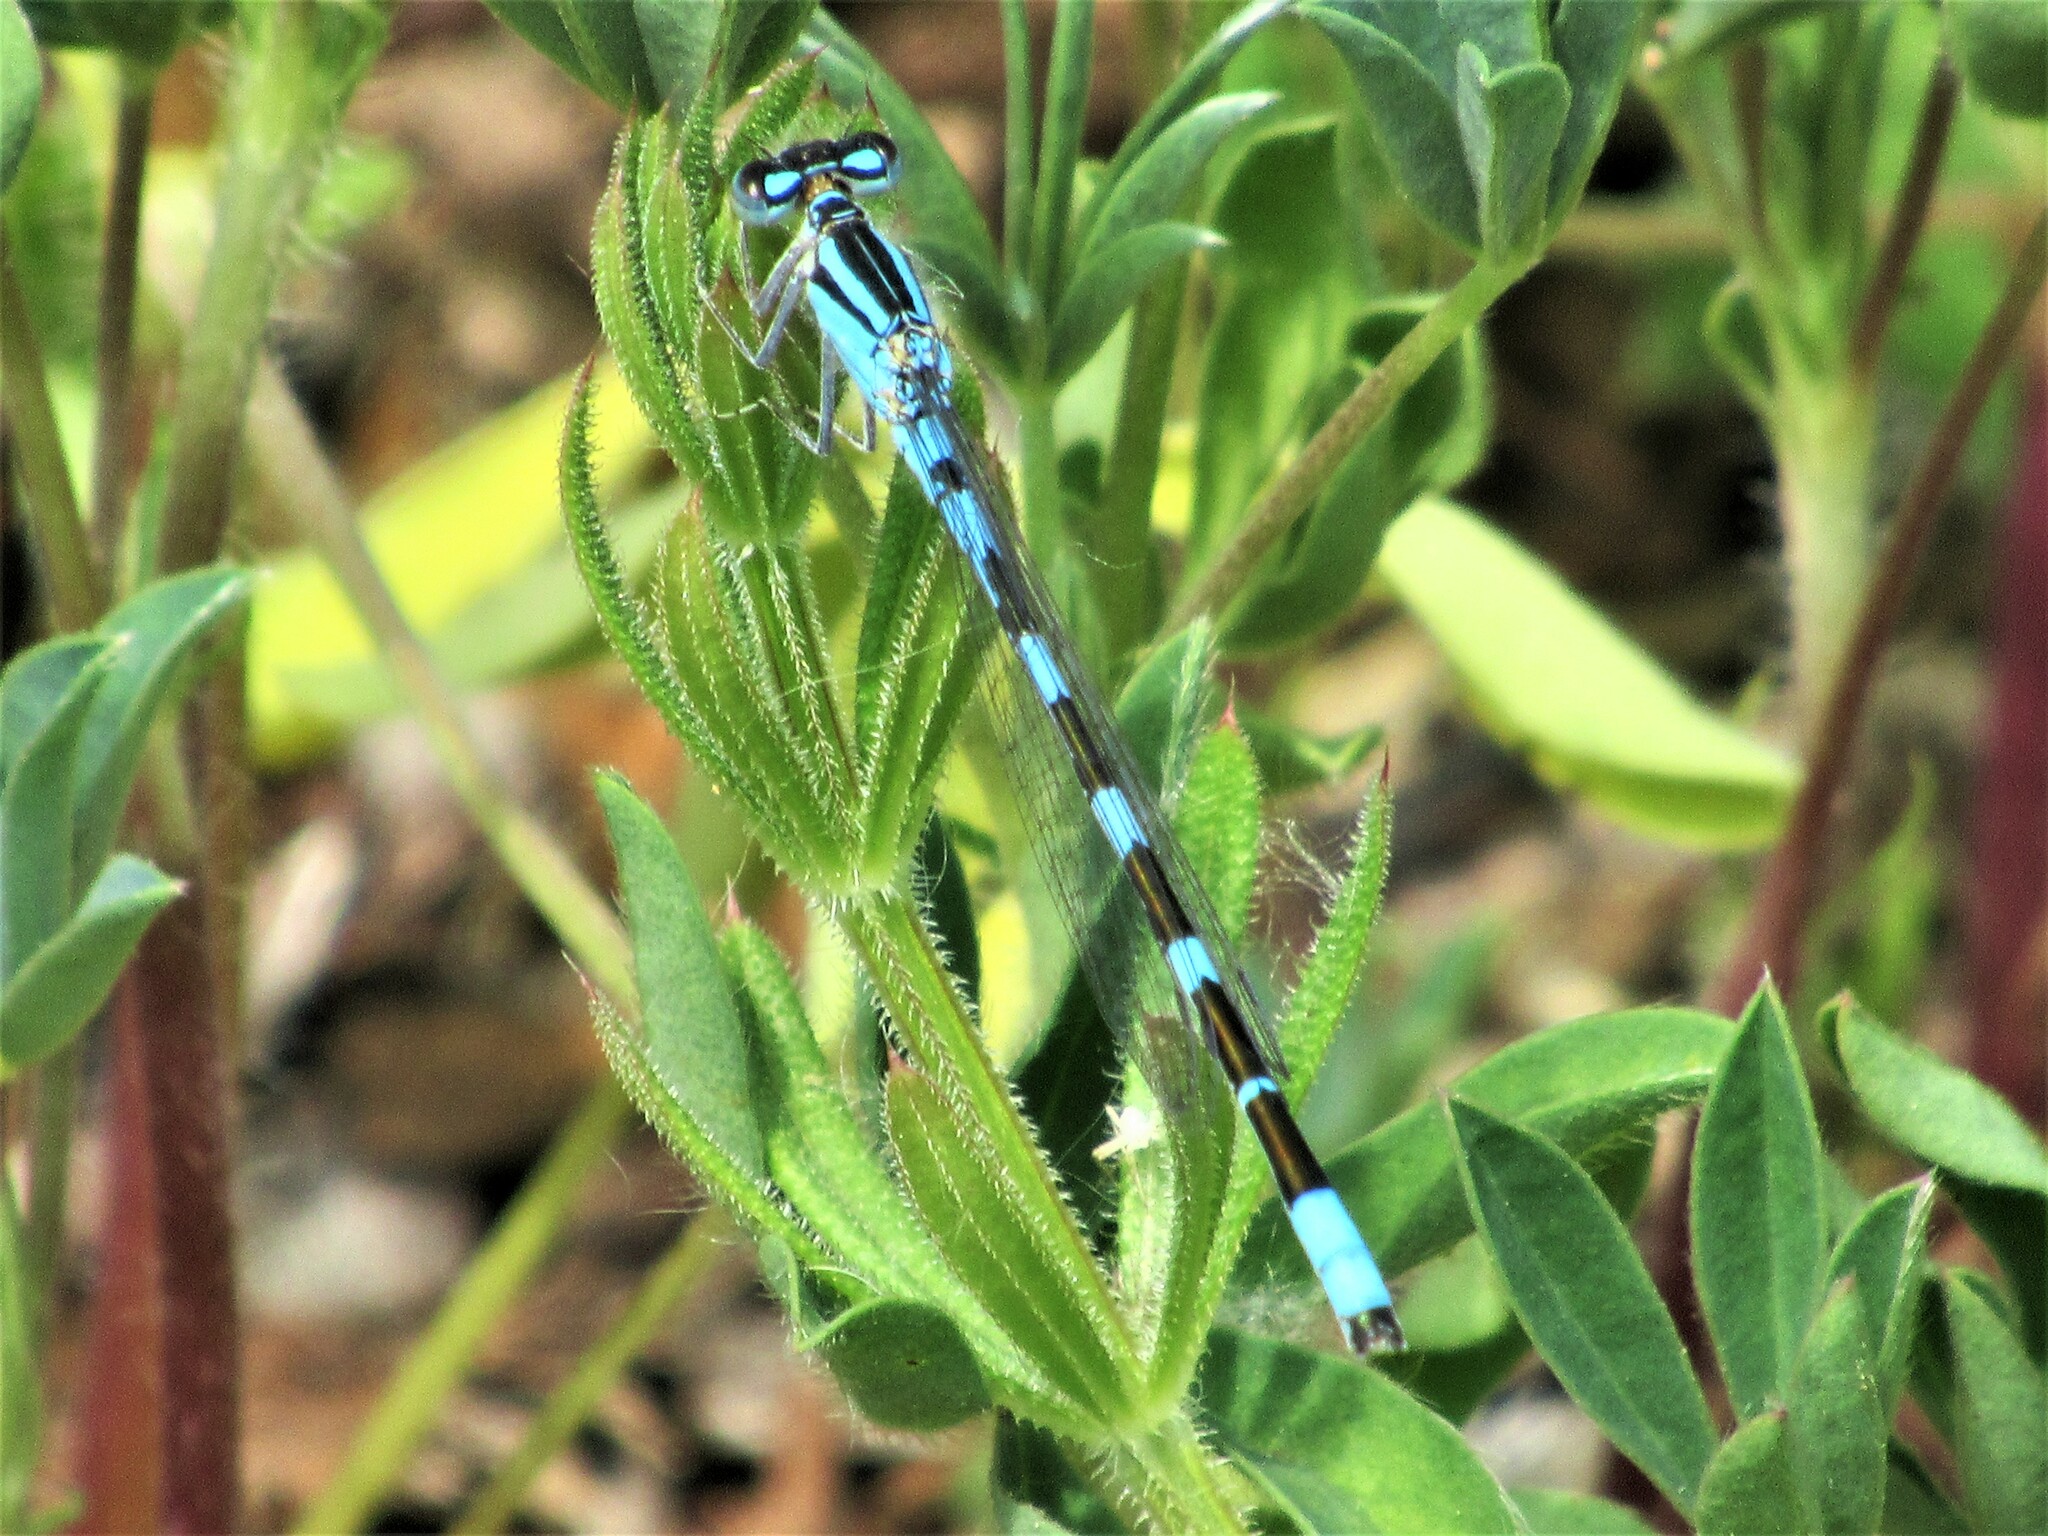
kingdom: Animalia
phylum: Arthropoda
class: Insecta
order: Odonata
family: Coenagrionidae
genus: Enallagma
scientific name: Enallagma carunculatum
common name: Tule bluet
